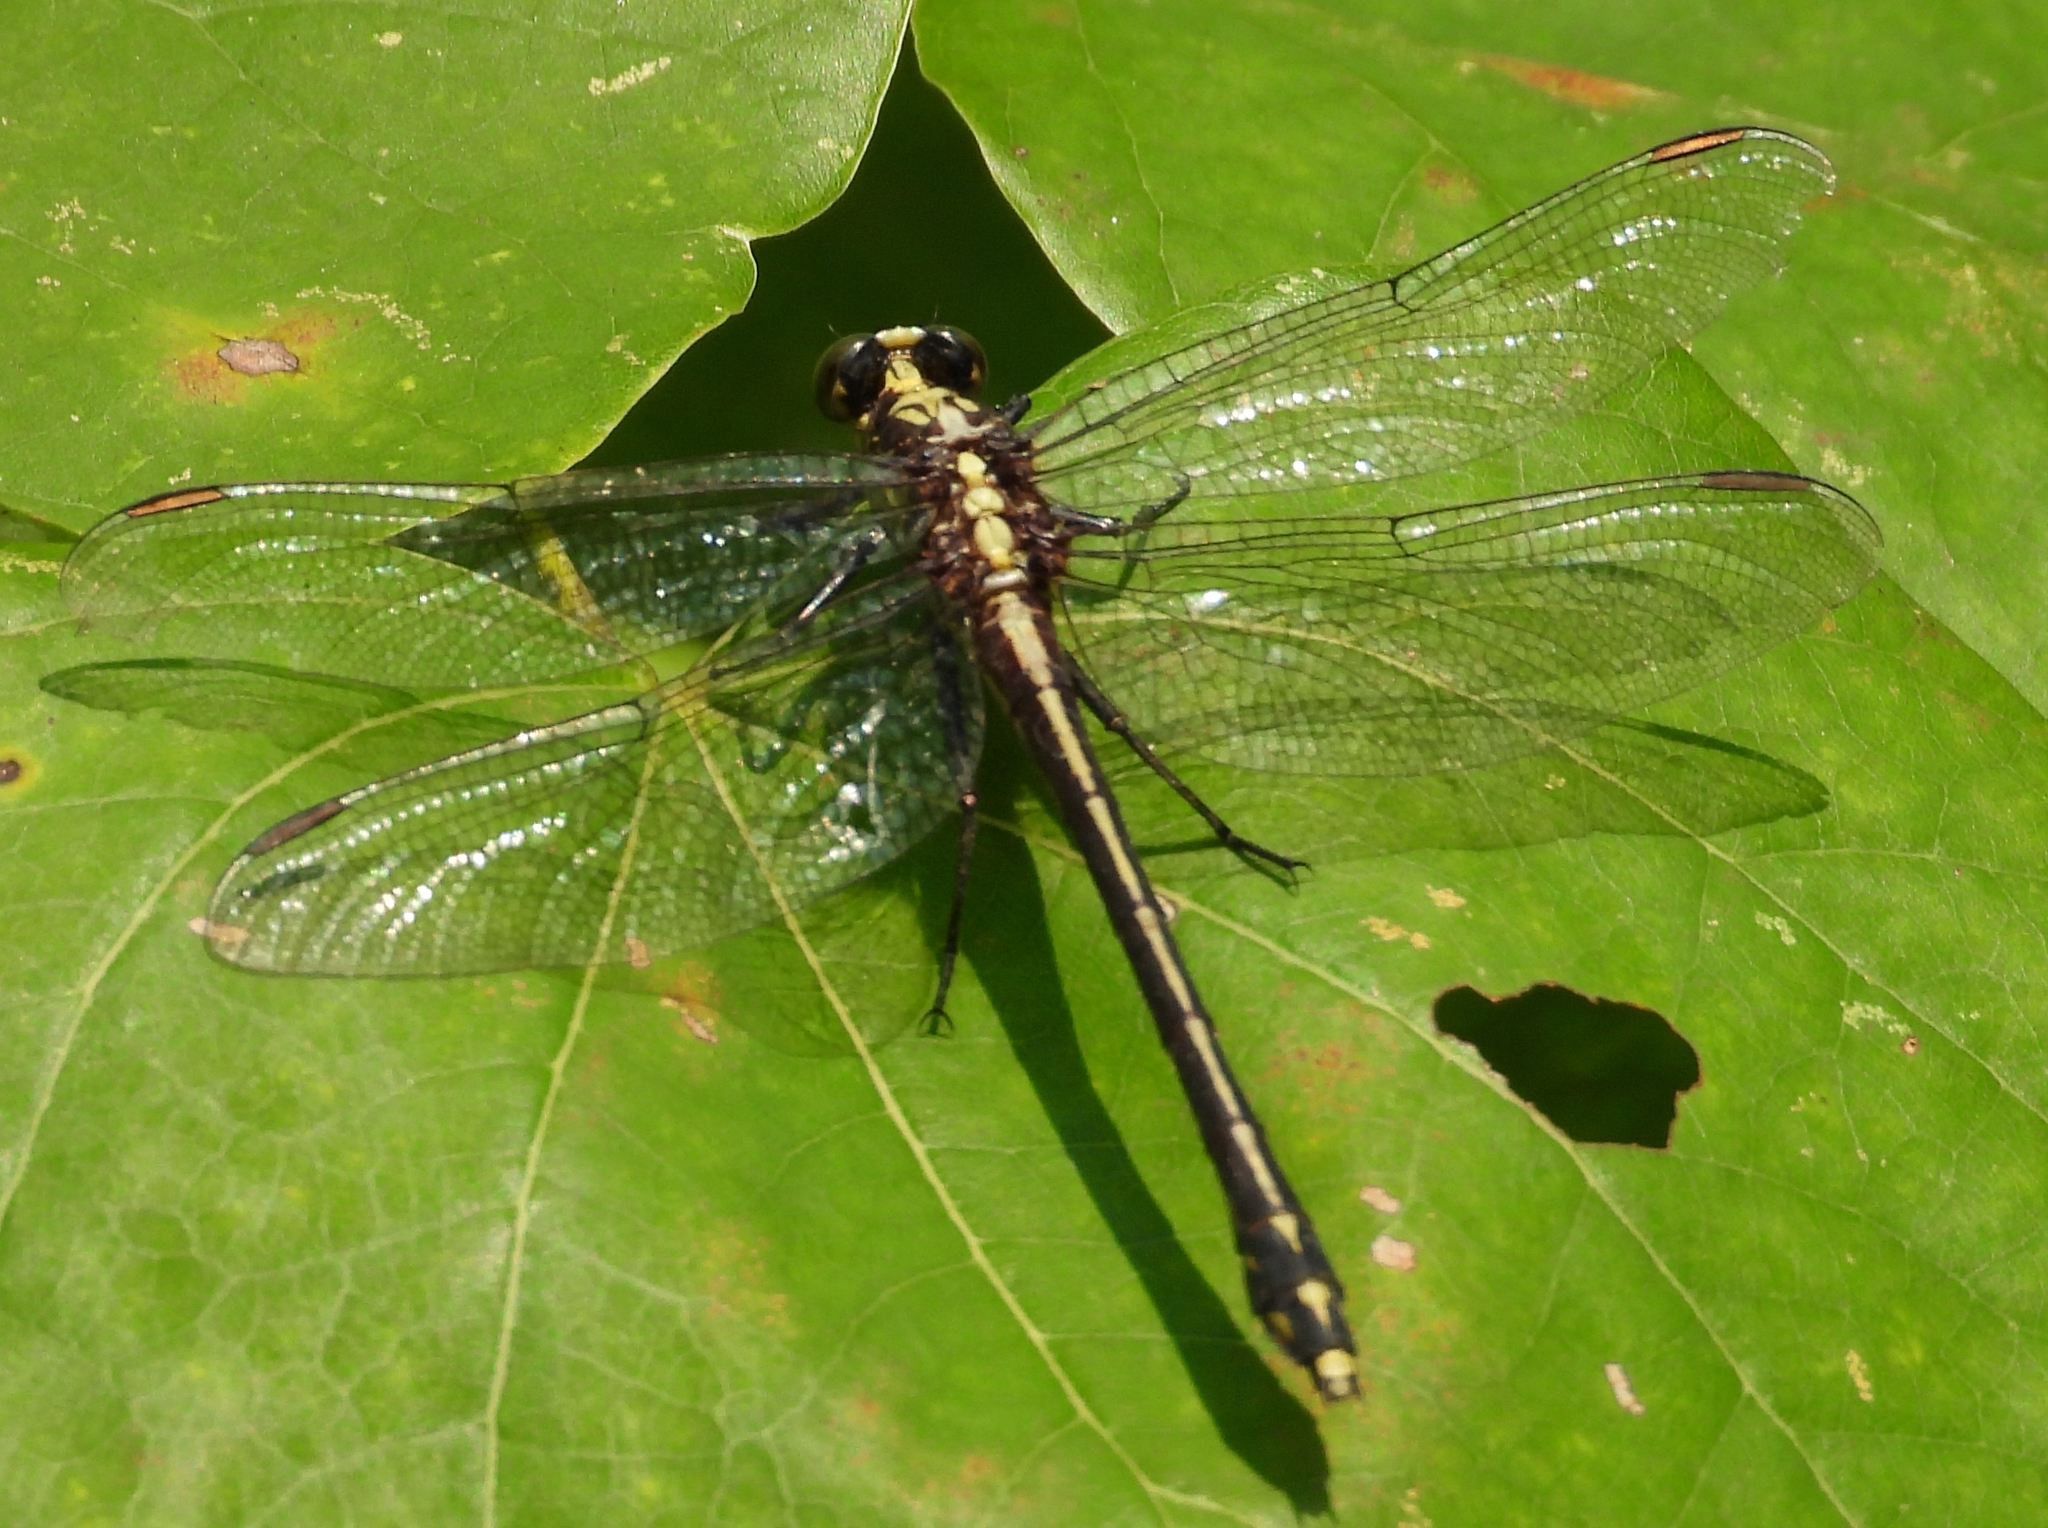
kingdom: Animalia
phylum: Arthropoda
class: Insecta
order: Odonata
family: Gomphidae
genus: Dromogomphus
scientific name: Dromogomphus spinosus
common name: Black-shouldered spinyleg
